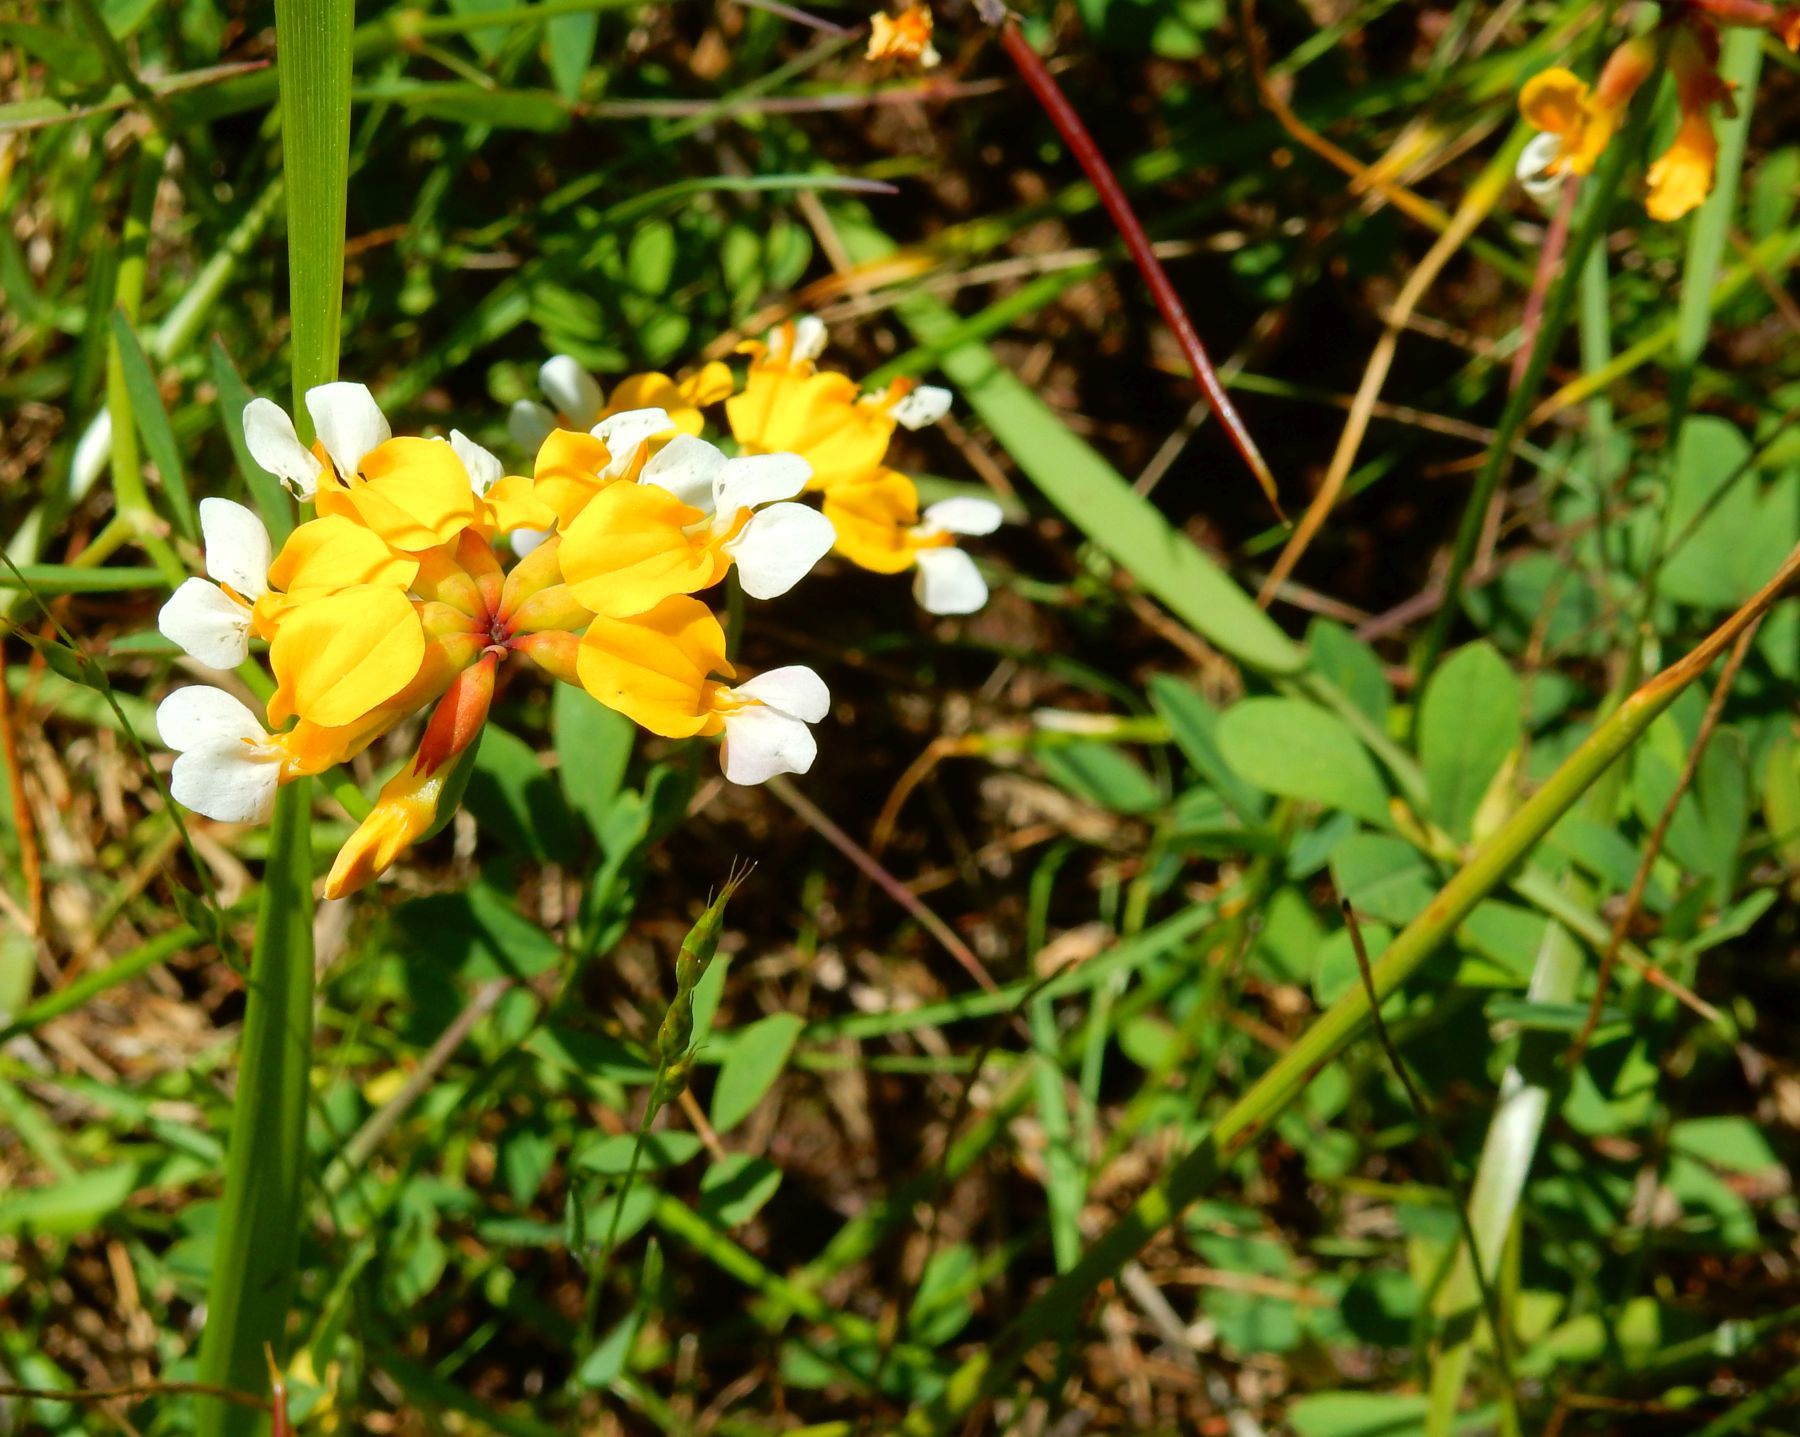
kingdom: Plantae
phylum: Tracheophyta
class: Magnoliopsida
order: Fabales
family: Fabaceae
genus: Hosackia
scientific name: Hosackia pinnata
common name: Bog bird's-foot trefoil
